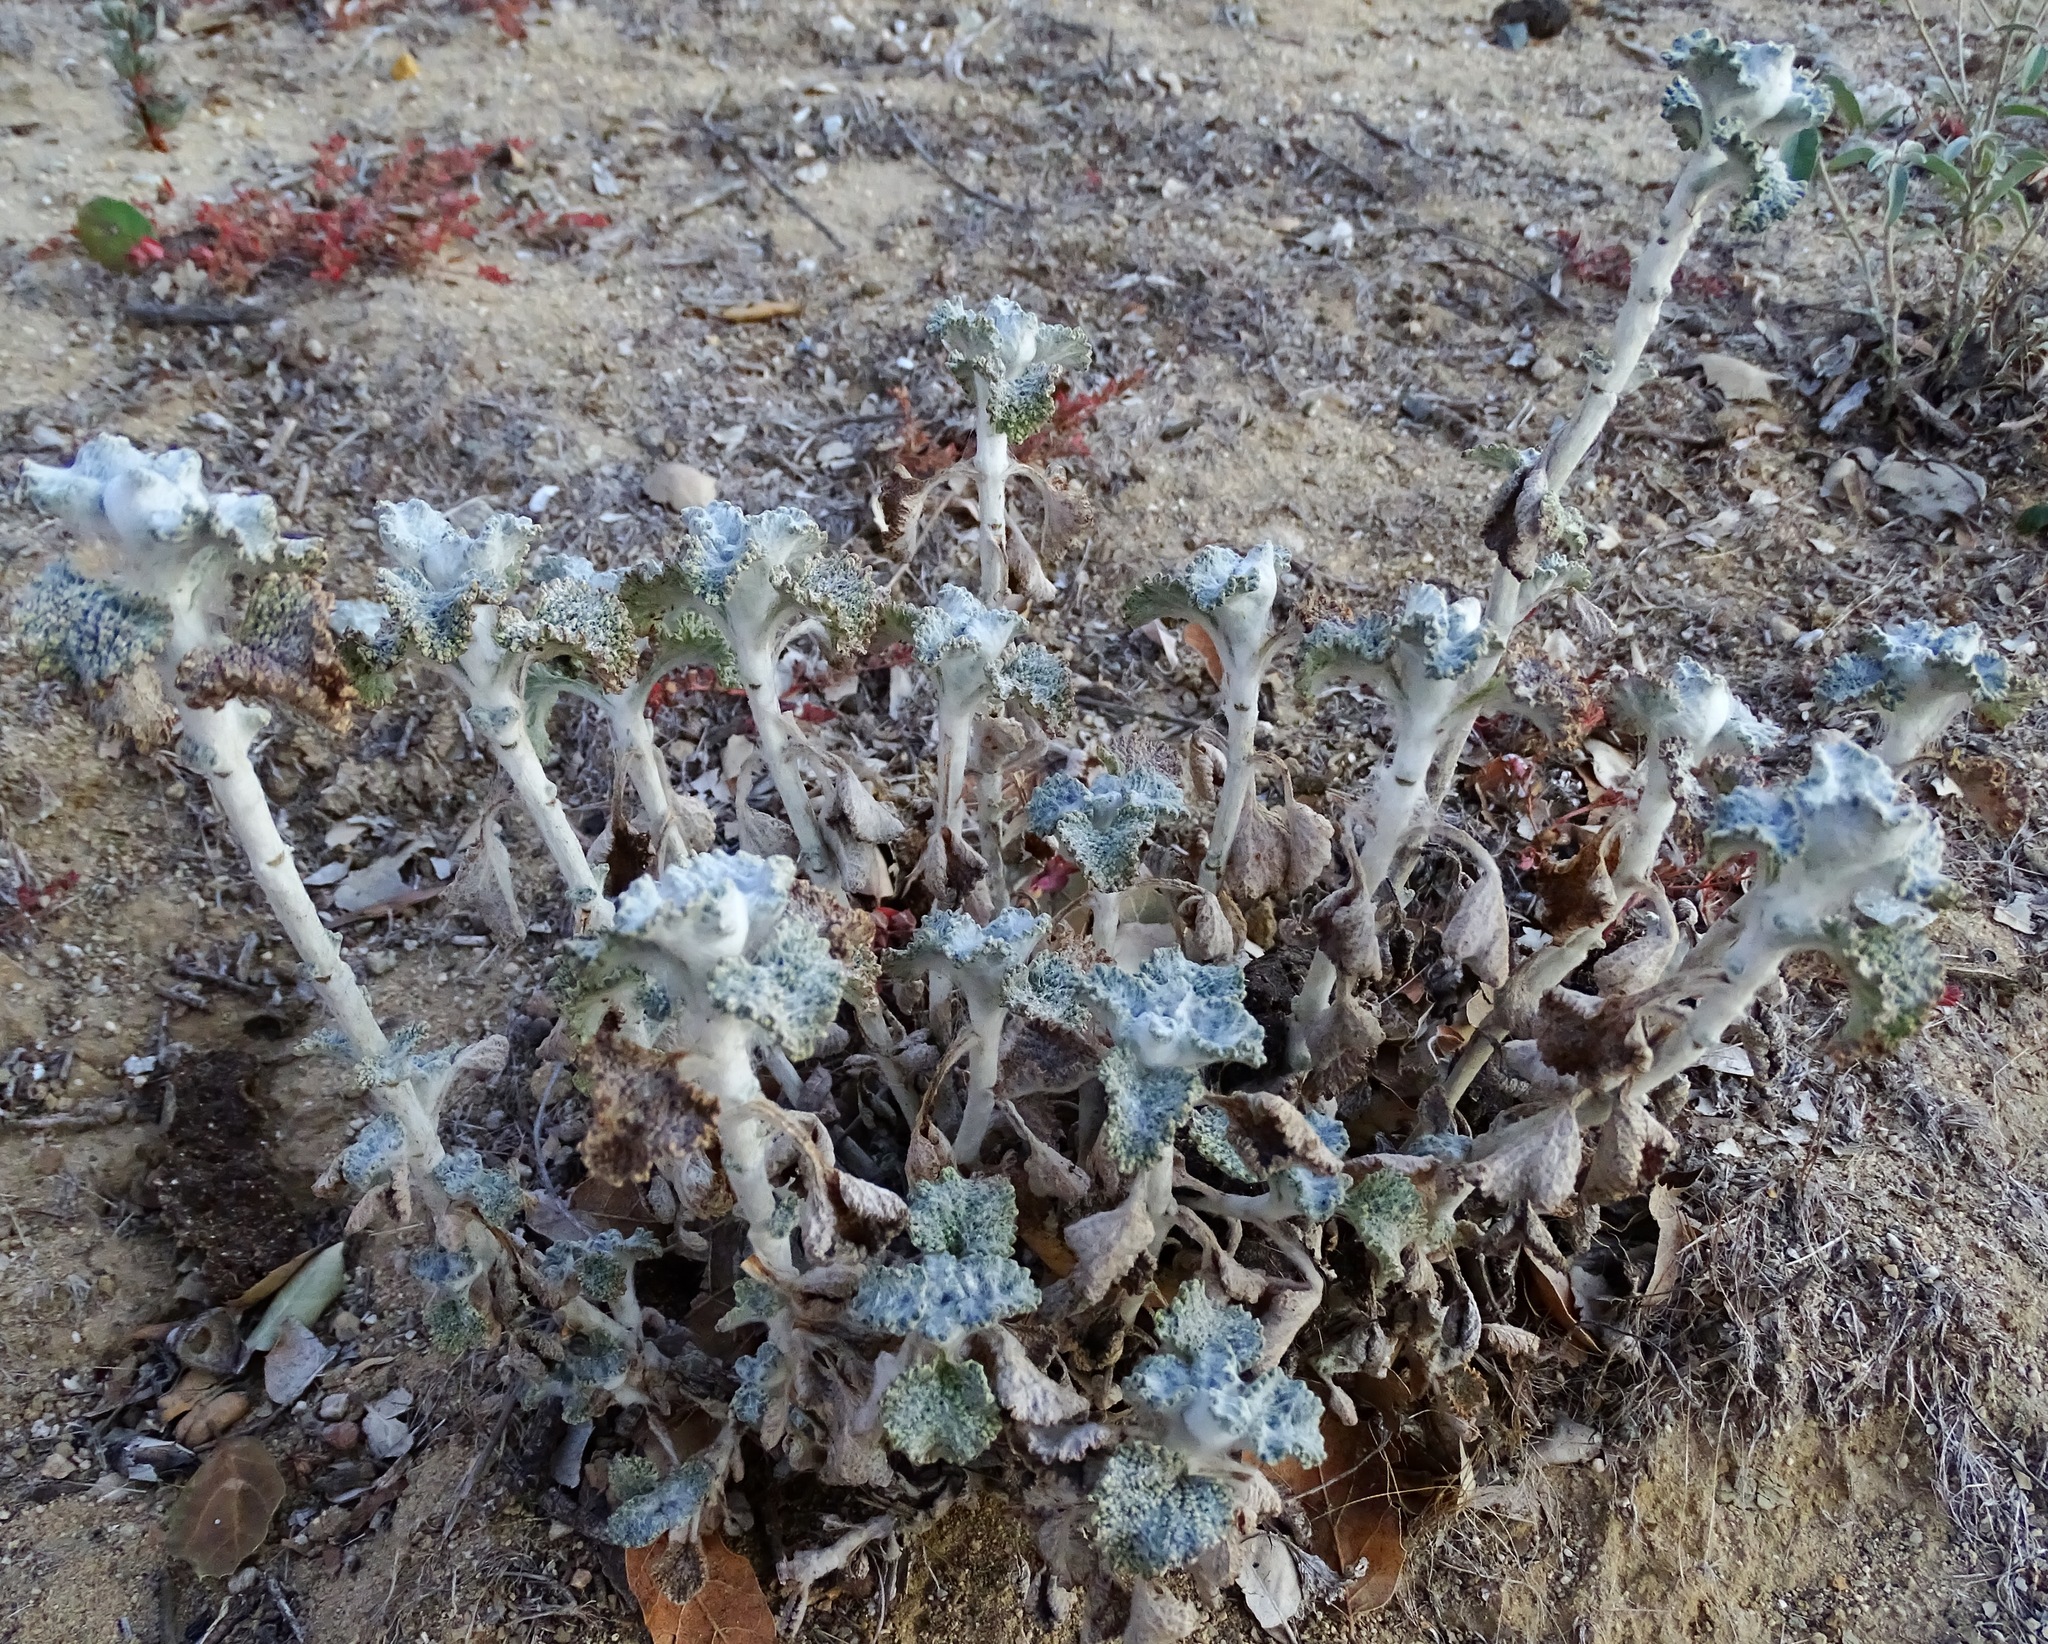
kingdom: Plantae
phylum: Tracheophyta
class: Magnoliopsida
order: Lamiales
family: Lamiaceae
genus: Marrubium
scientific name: Marrubium vulgare
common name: Horehound
